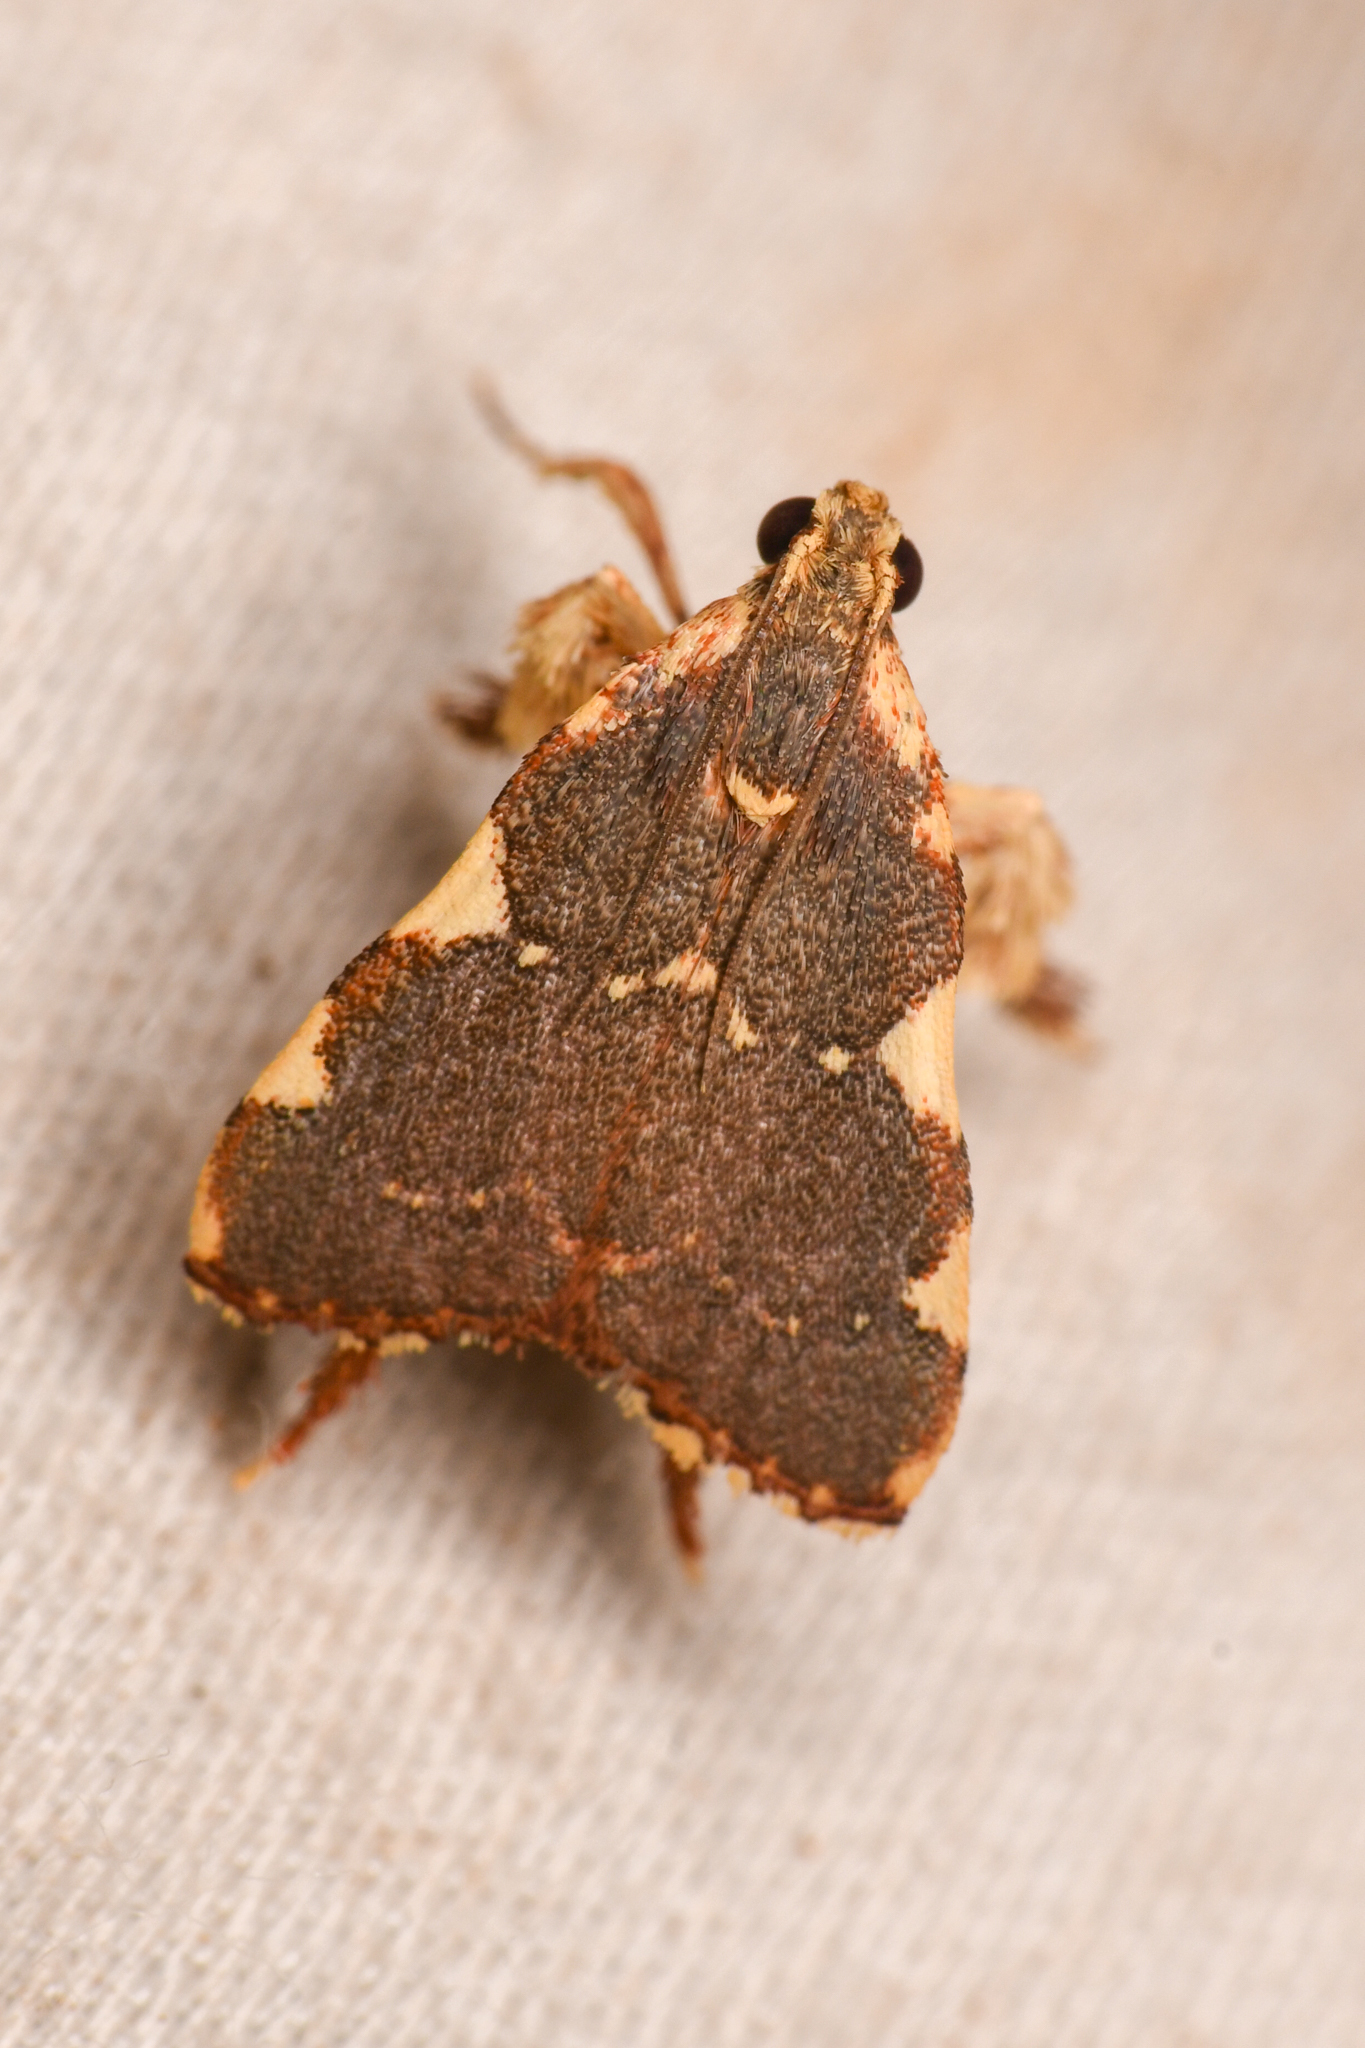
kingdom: Animalia
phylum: Arthropoda
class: Insecta
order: Lepidoptera
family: Pyralidae
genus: Parachma
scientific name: Parachma rufoflavalis
